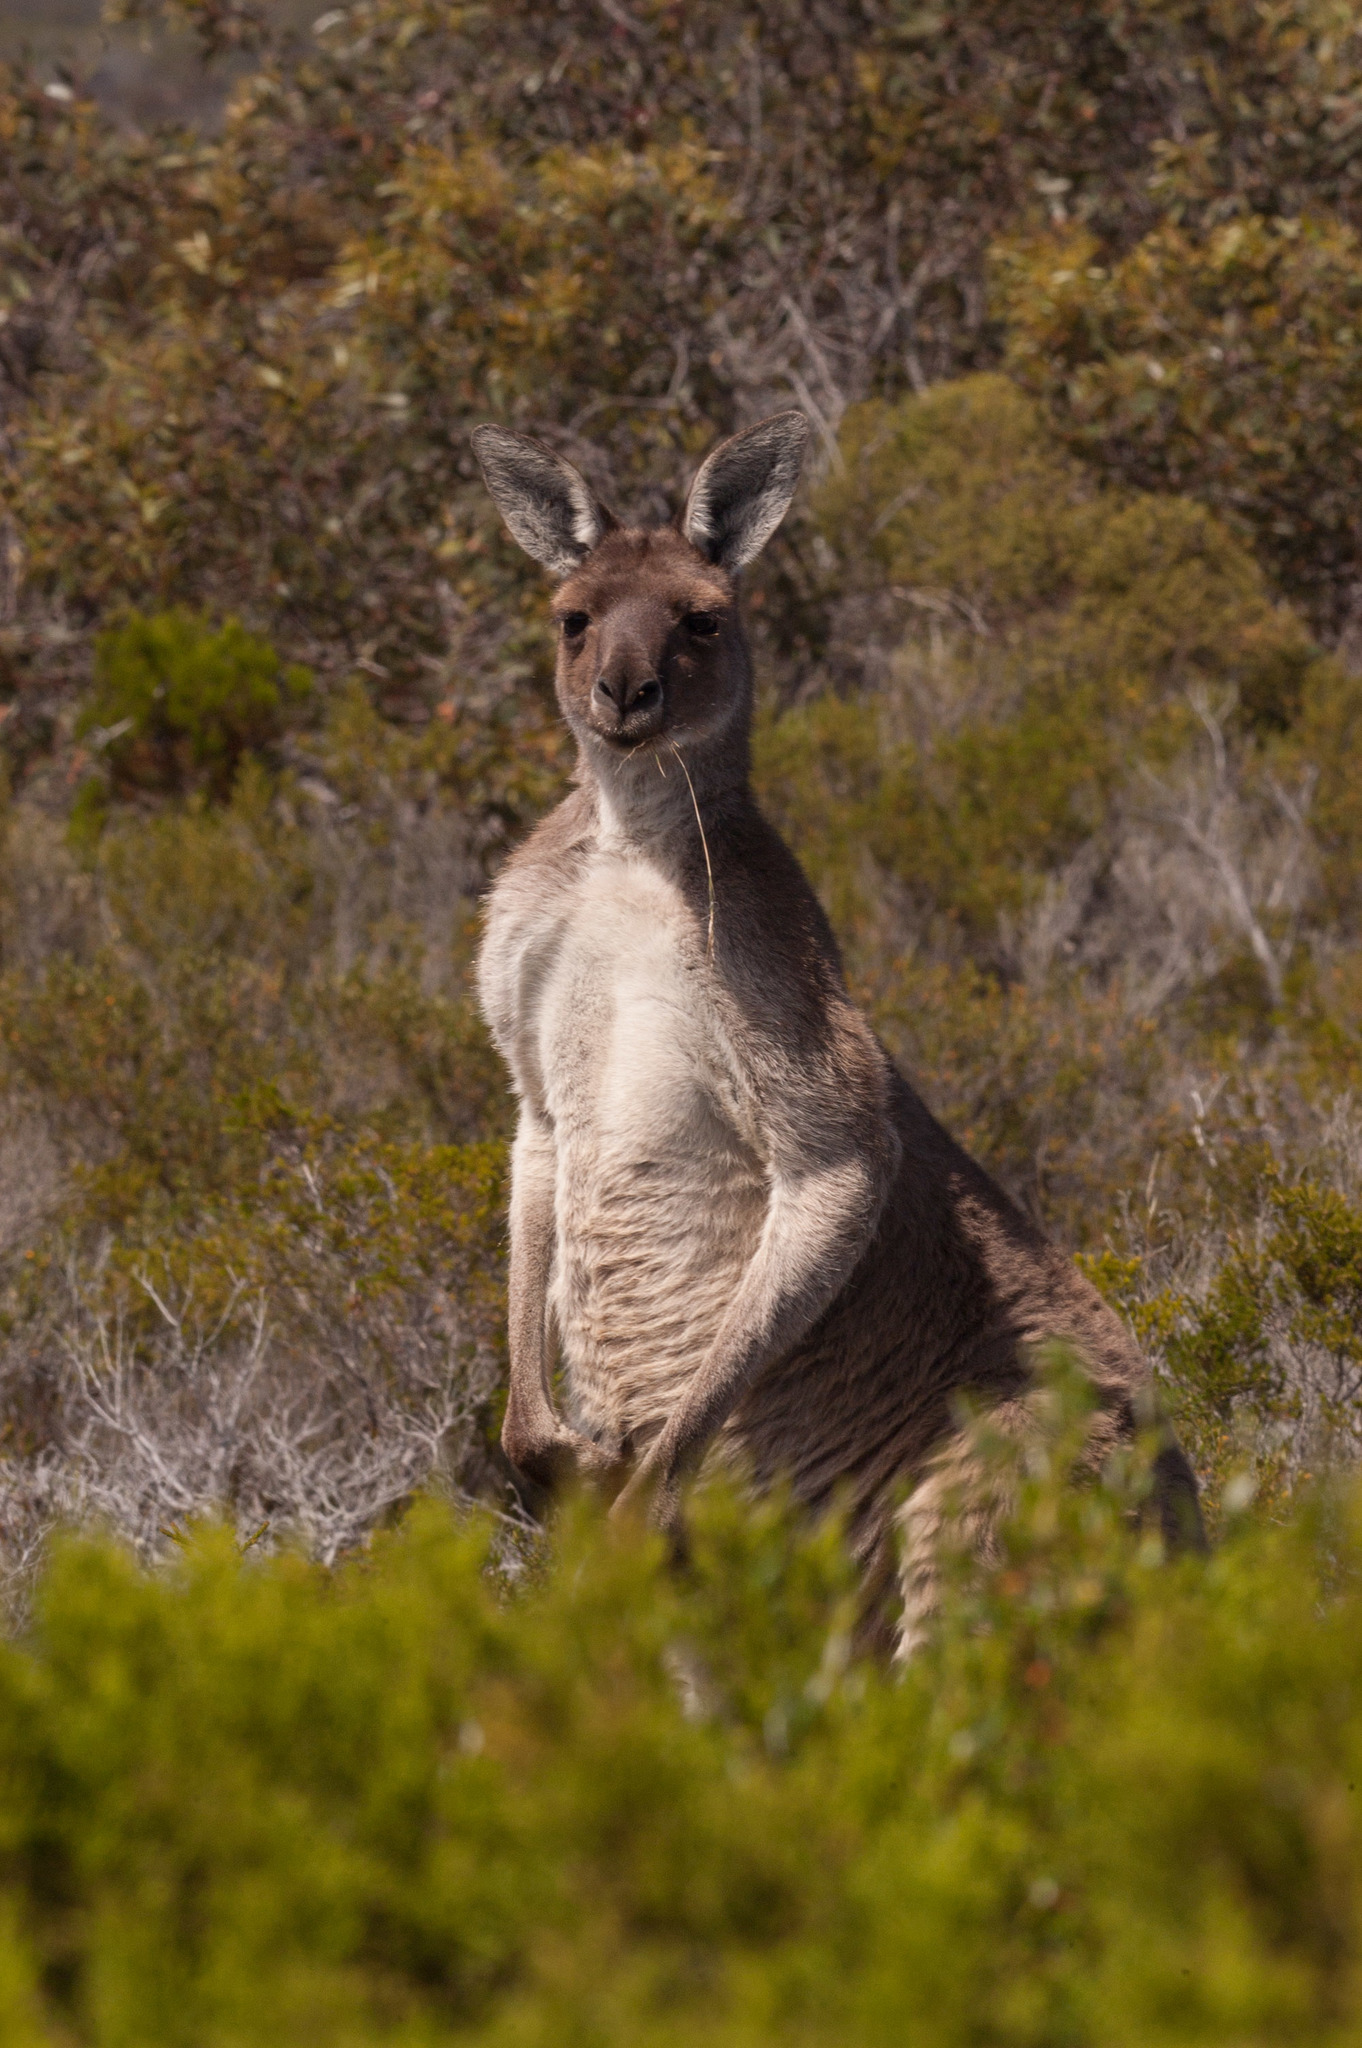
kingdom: Animalia
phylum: Chordata
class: Mammalia
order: Diprotodontia
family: Macropodidae
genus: Macropus
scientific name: Macropus fuliginosus
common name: Western grey kangaroo
